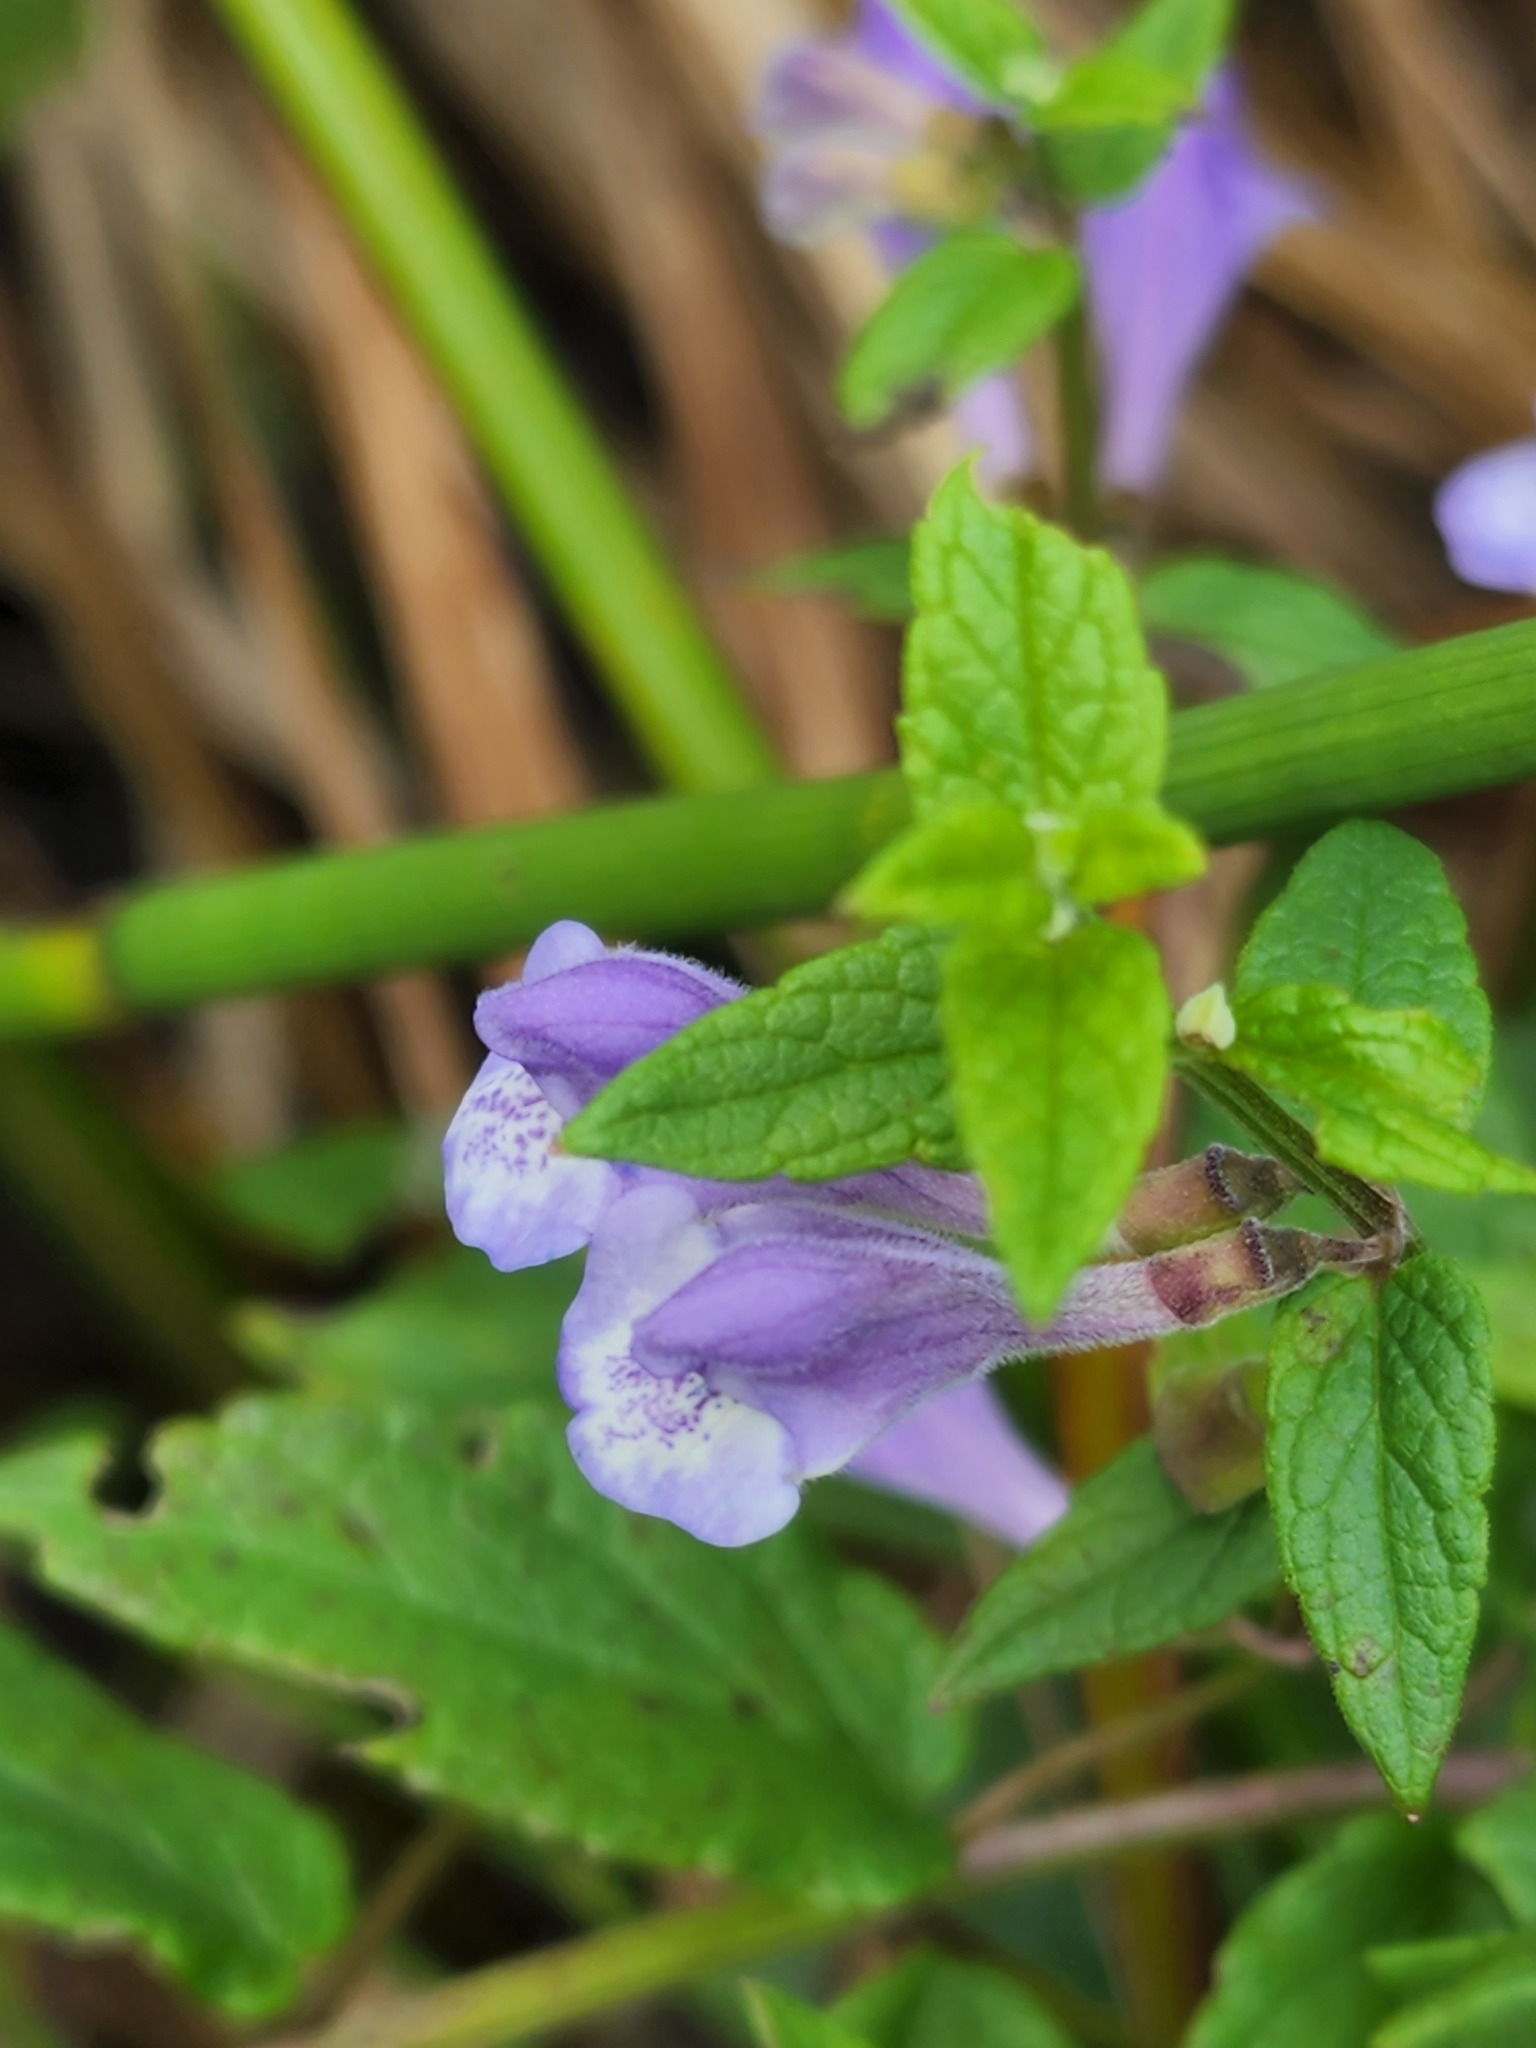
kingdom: Plantae
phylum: Tracheophyta
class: Magnoliopsida
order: Lamiales
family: Lamiaceae
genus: Scutellaria
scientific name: Scutellaria galericulata
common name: Skullcap
